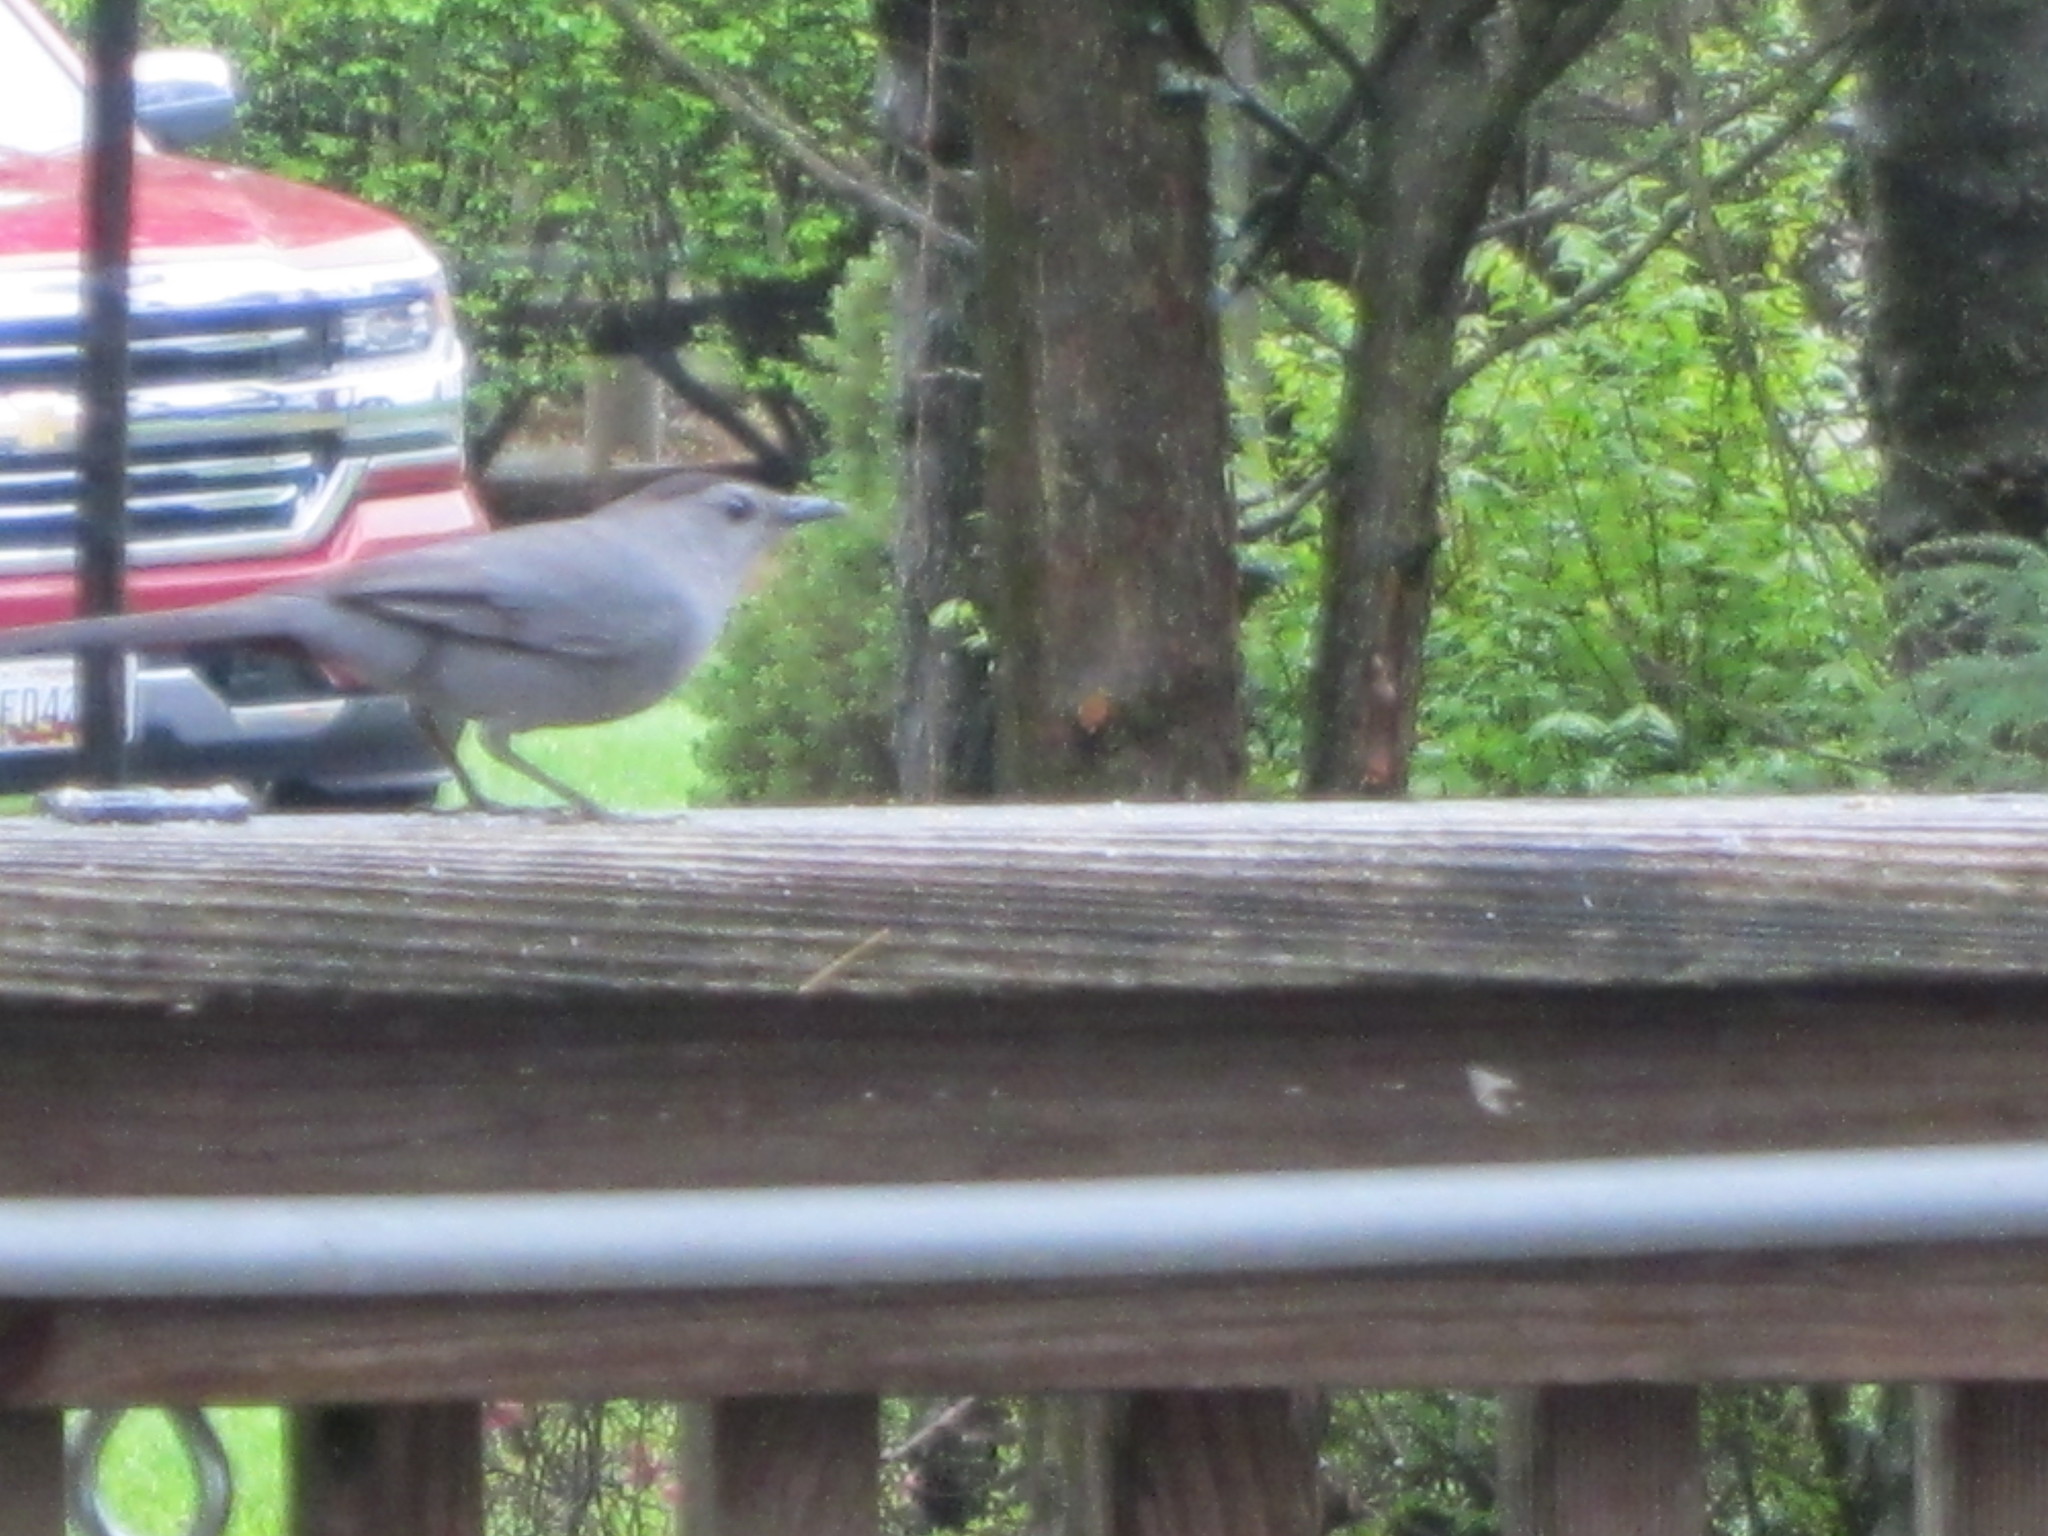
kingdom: Animalia
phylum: Chordata
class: Aves
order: Passeriformes
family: Mimidae
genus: Dumetella
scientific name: Dumetella carolinensis
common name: Gray catbird
